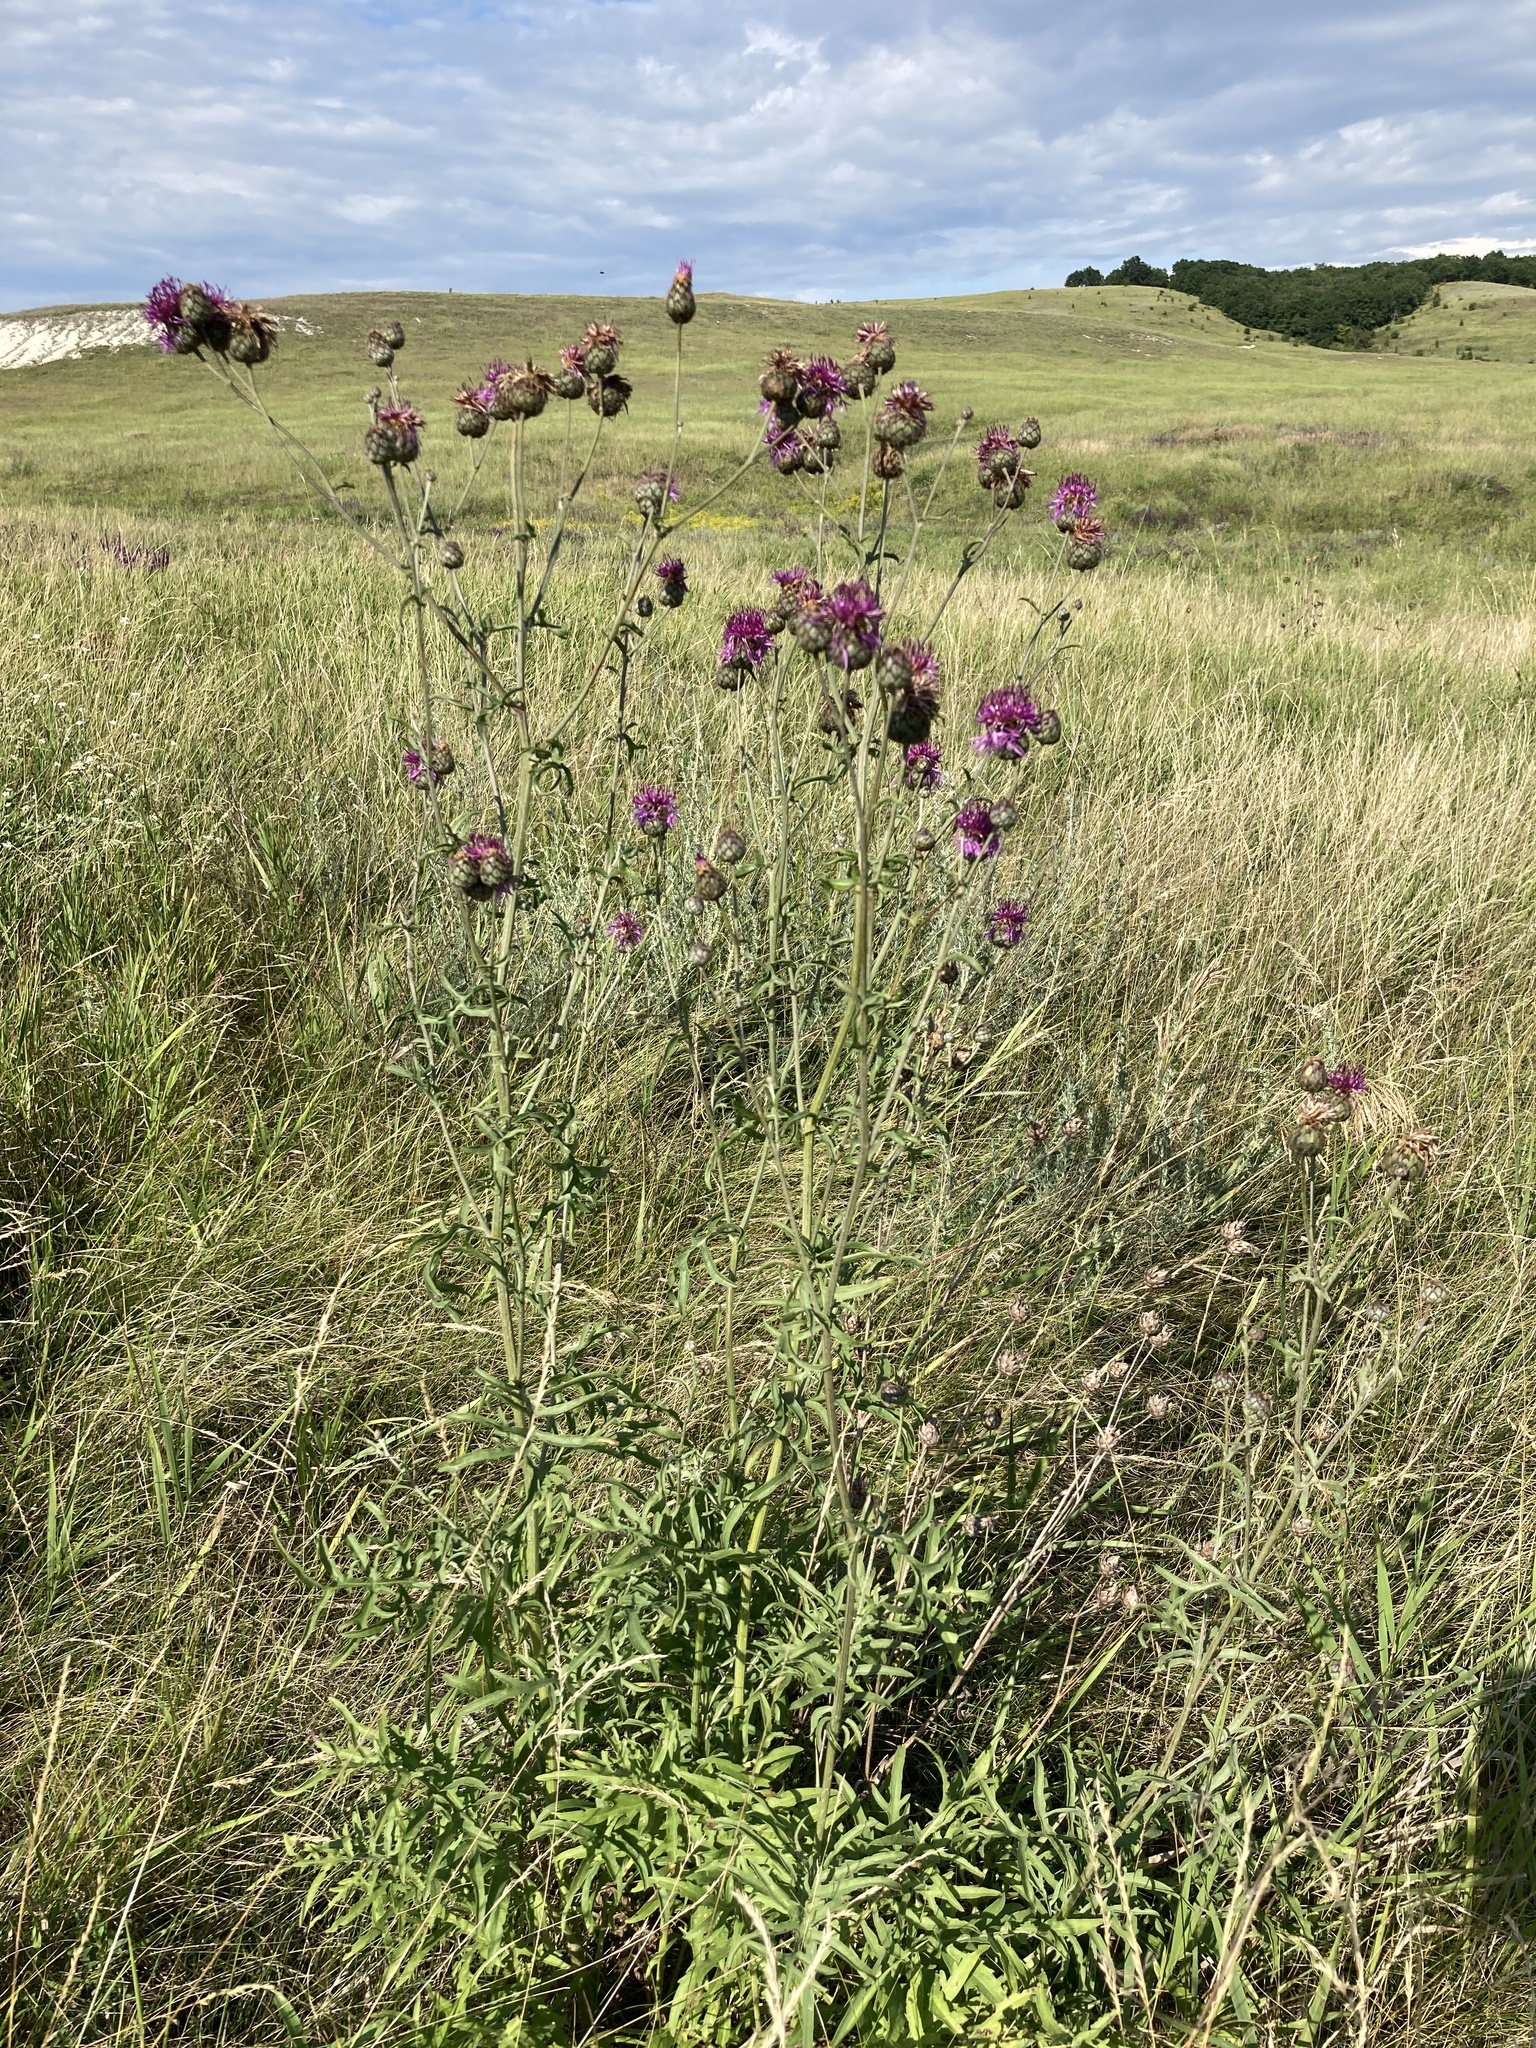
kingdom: Plantae
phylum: Tracheophyta
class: Magnoliopsida
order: Asterales
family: Asteraceae
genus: Centaurea
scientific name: Centaurea scabiosa
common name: Greater knapweed
